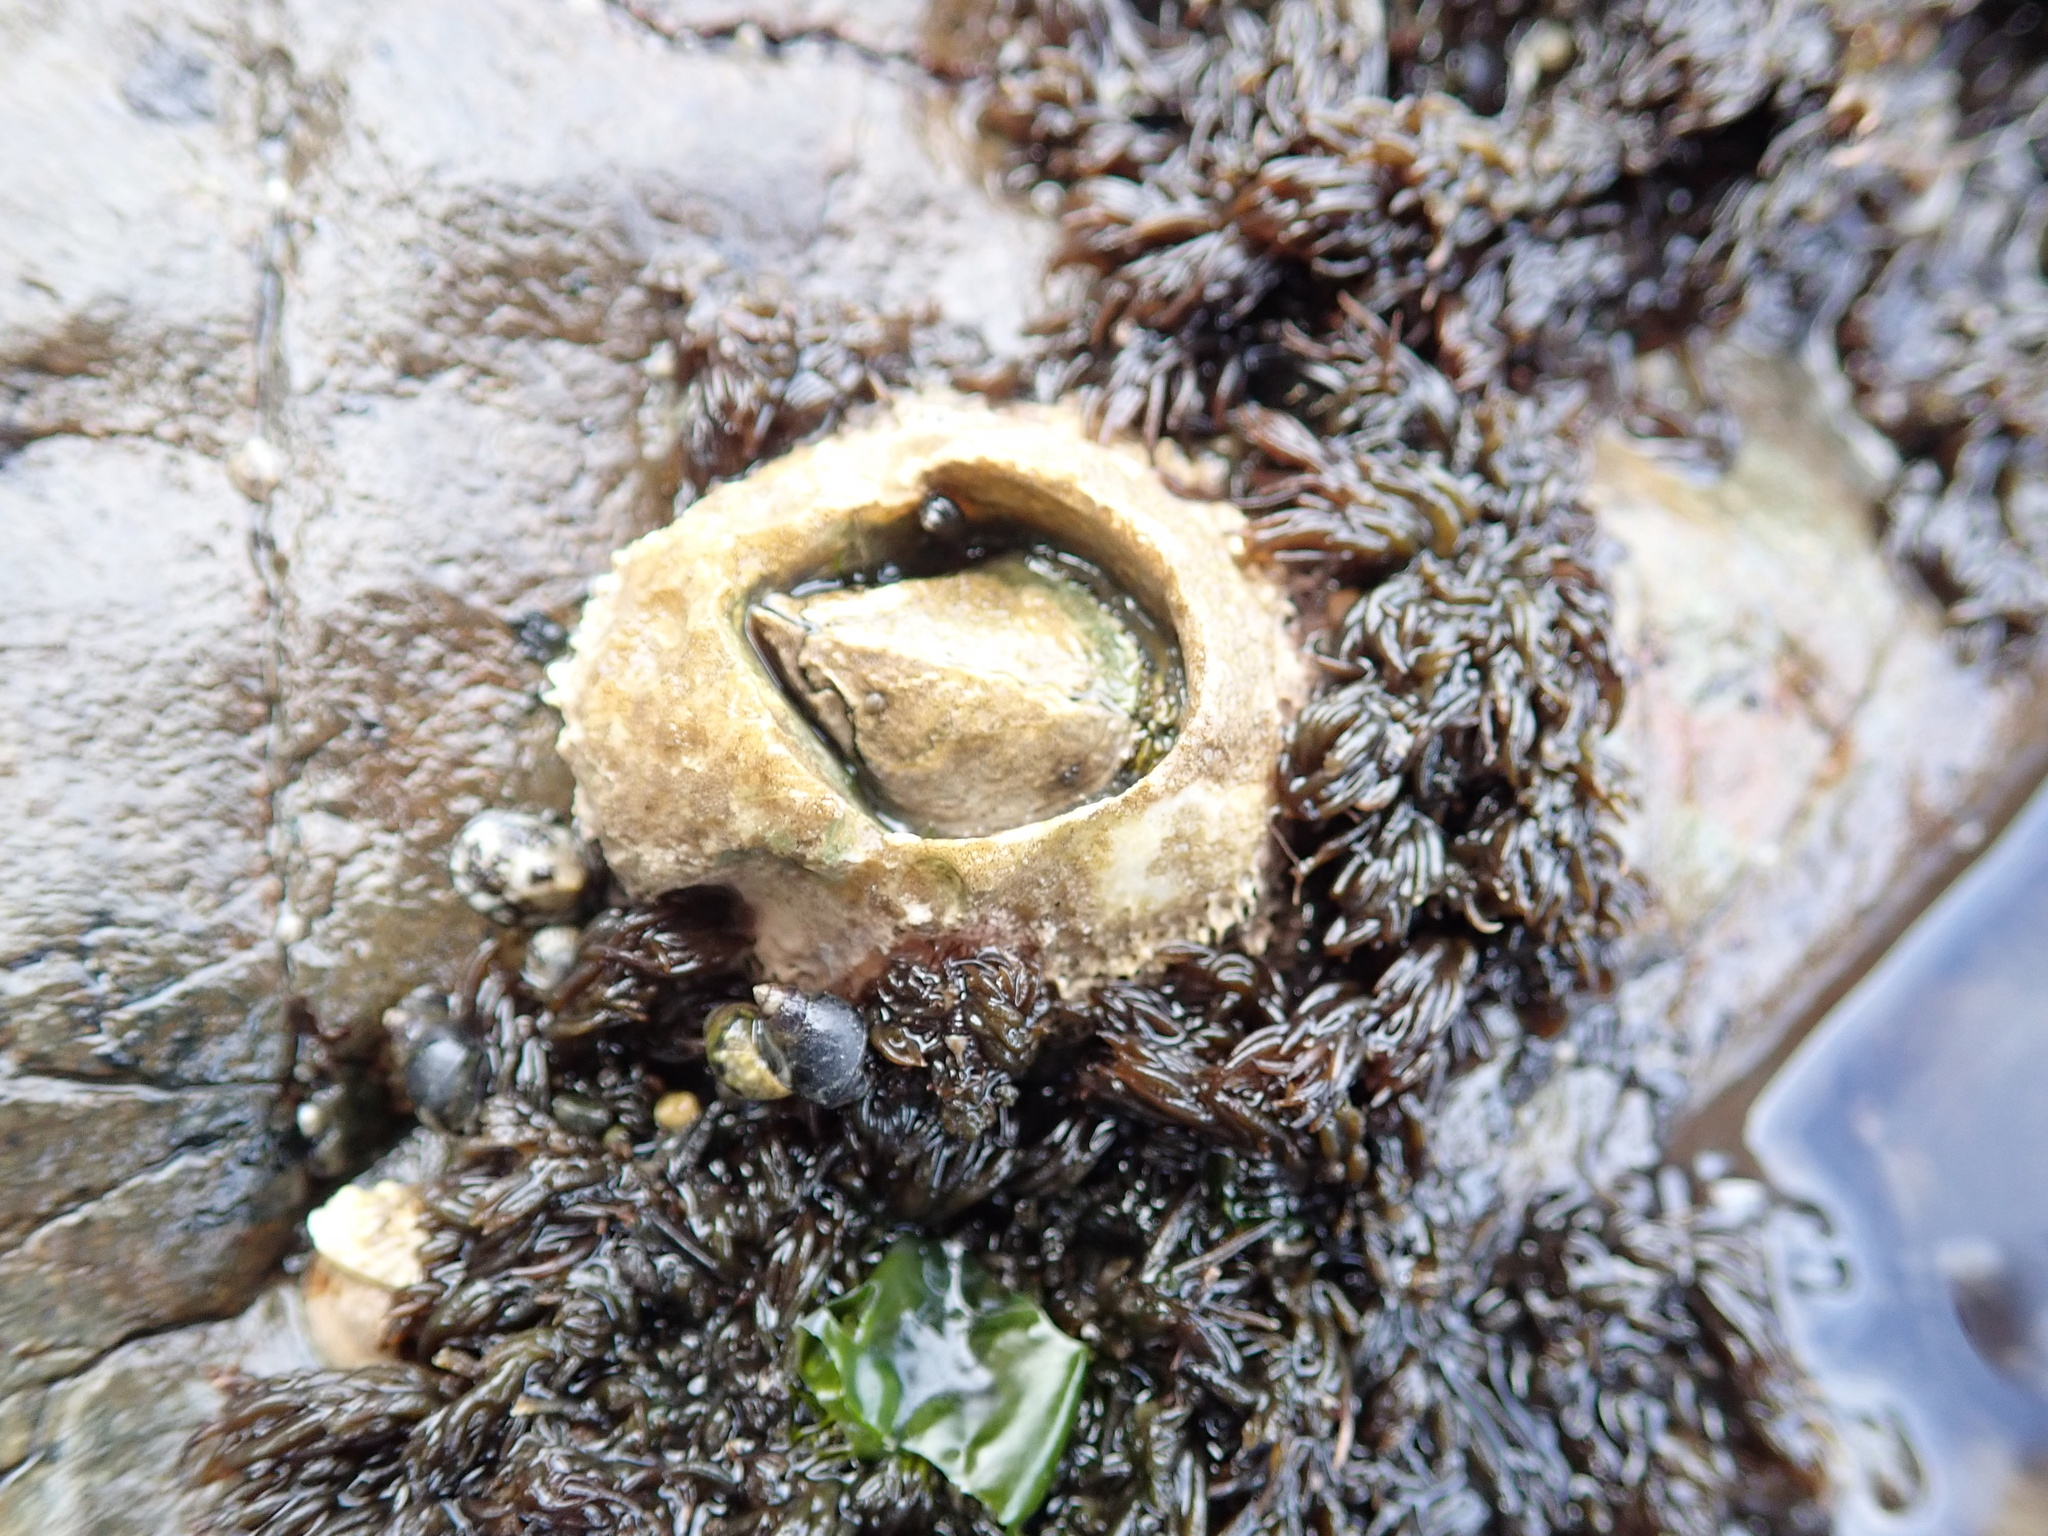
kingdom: Animalia
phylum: Arthropoda
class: Maxillopoda
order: Sessilia
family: Archaeobalanidae
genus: Semibalanus
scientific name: Semibalanus cariosus
